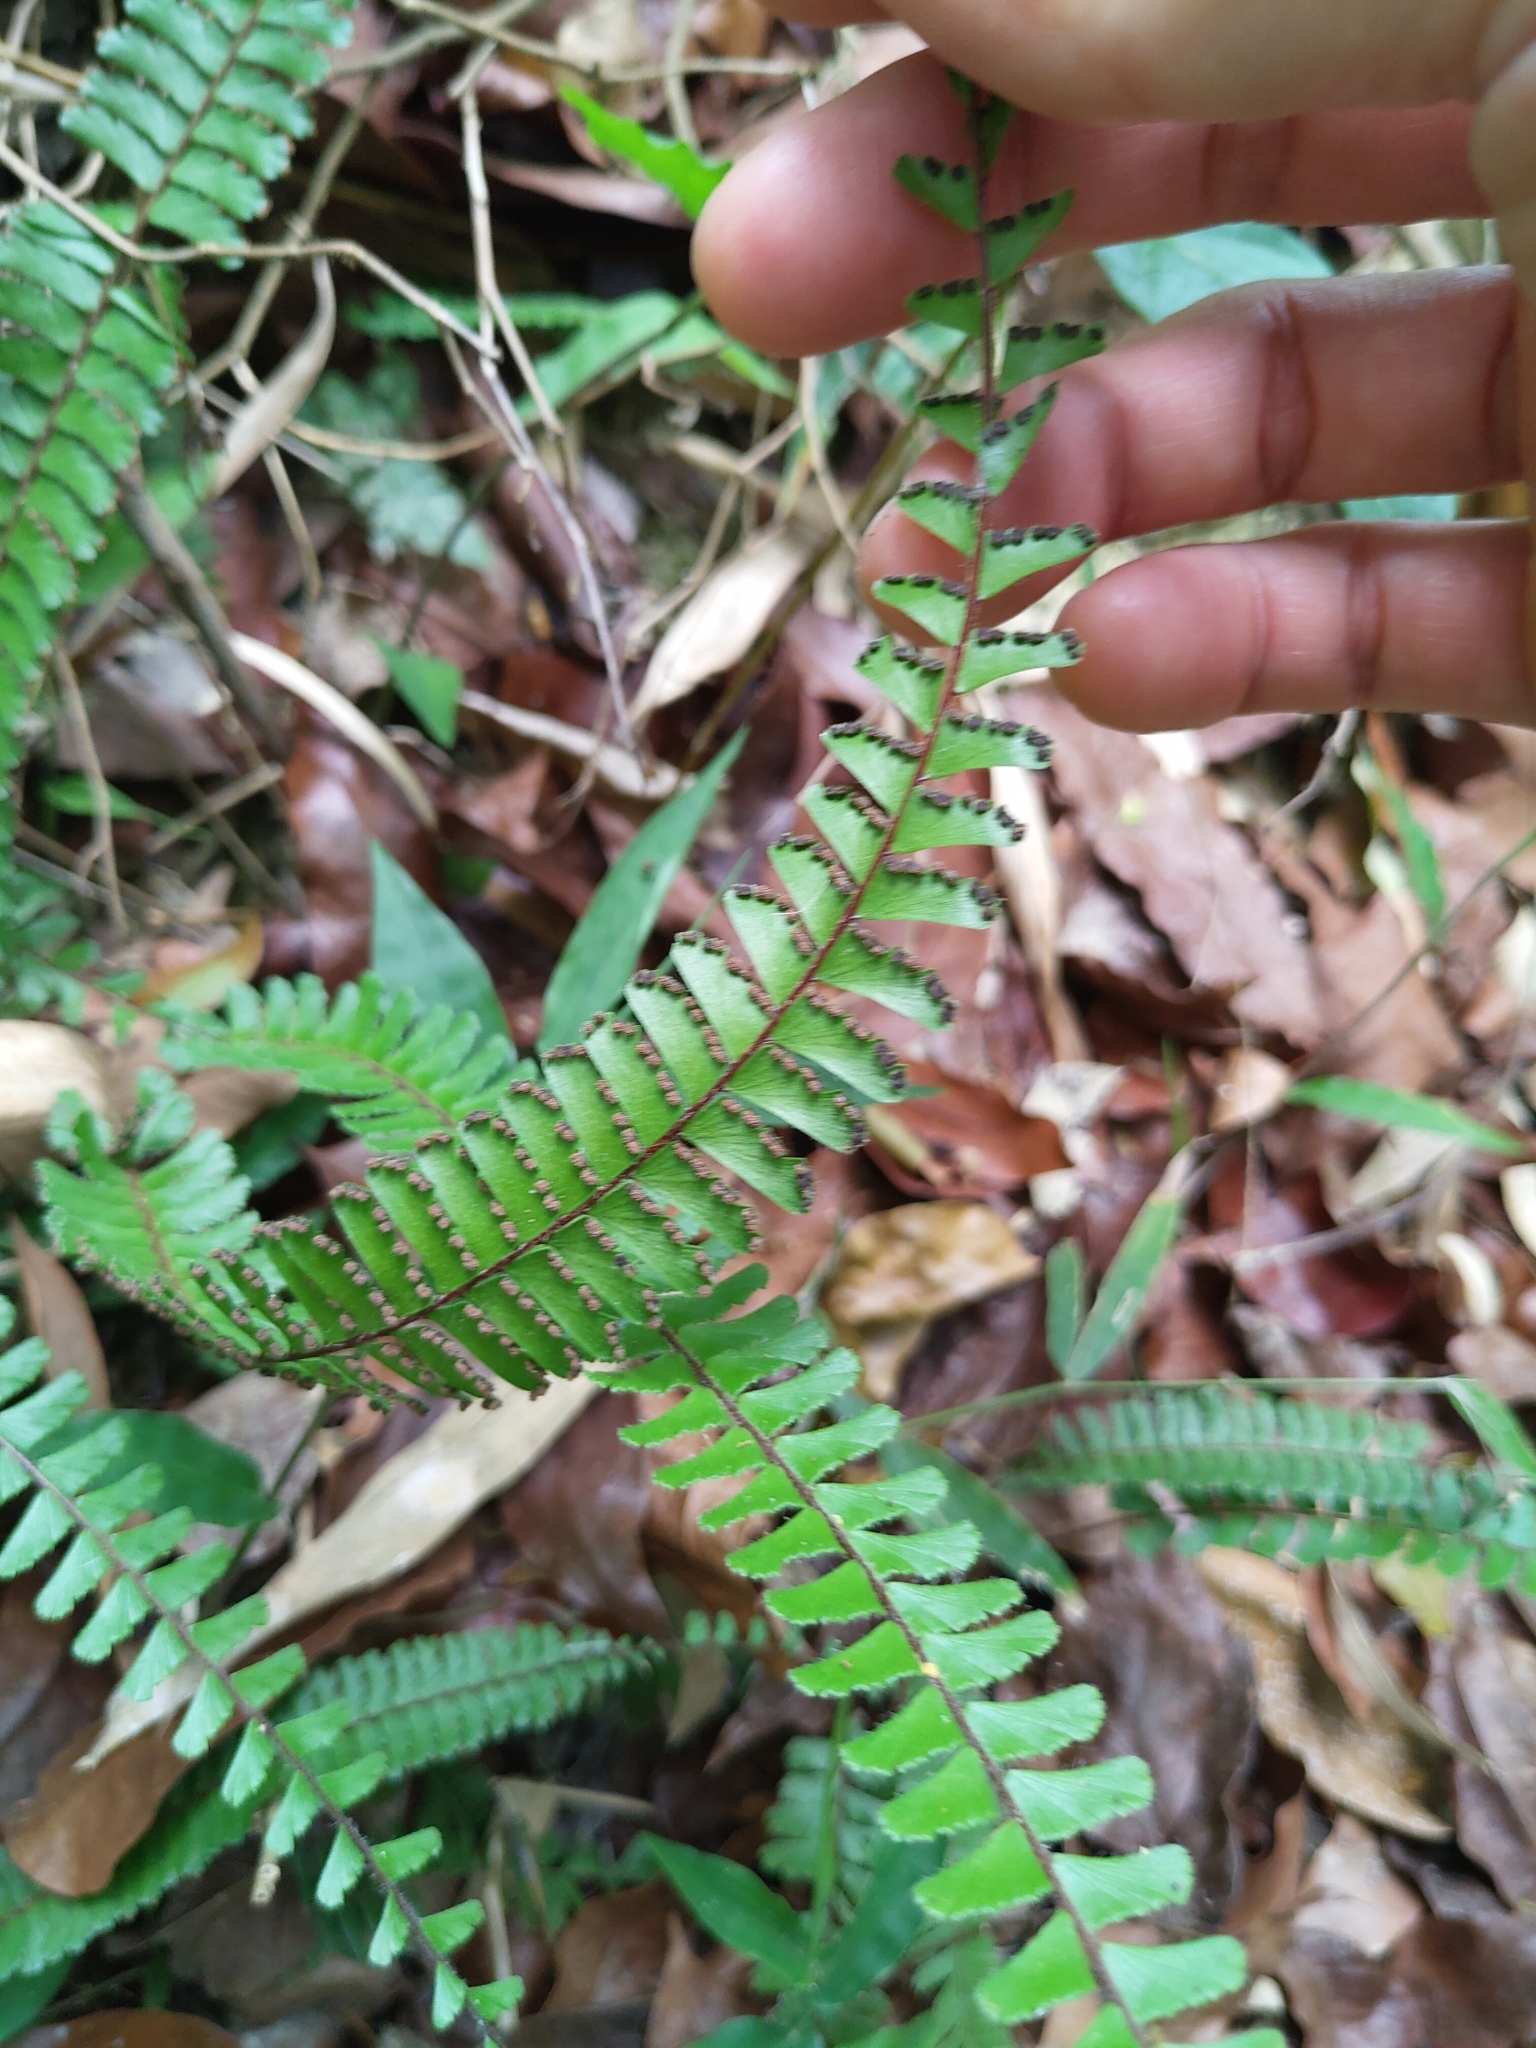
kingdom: Plantae
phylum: Tracheophyta
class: Polypodiopsida
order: Polypodiales
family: Pteridaceae
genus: Adiantum
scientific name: Adiantum caudatum
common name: Tailed maidenhair
